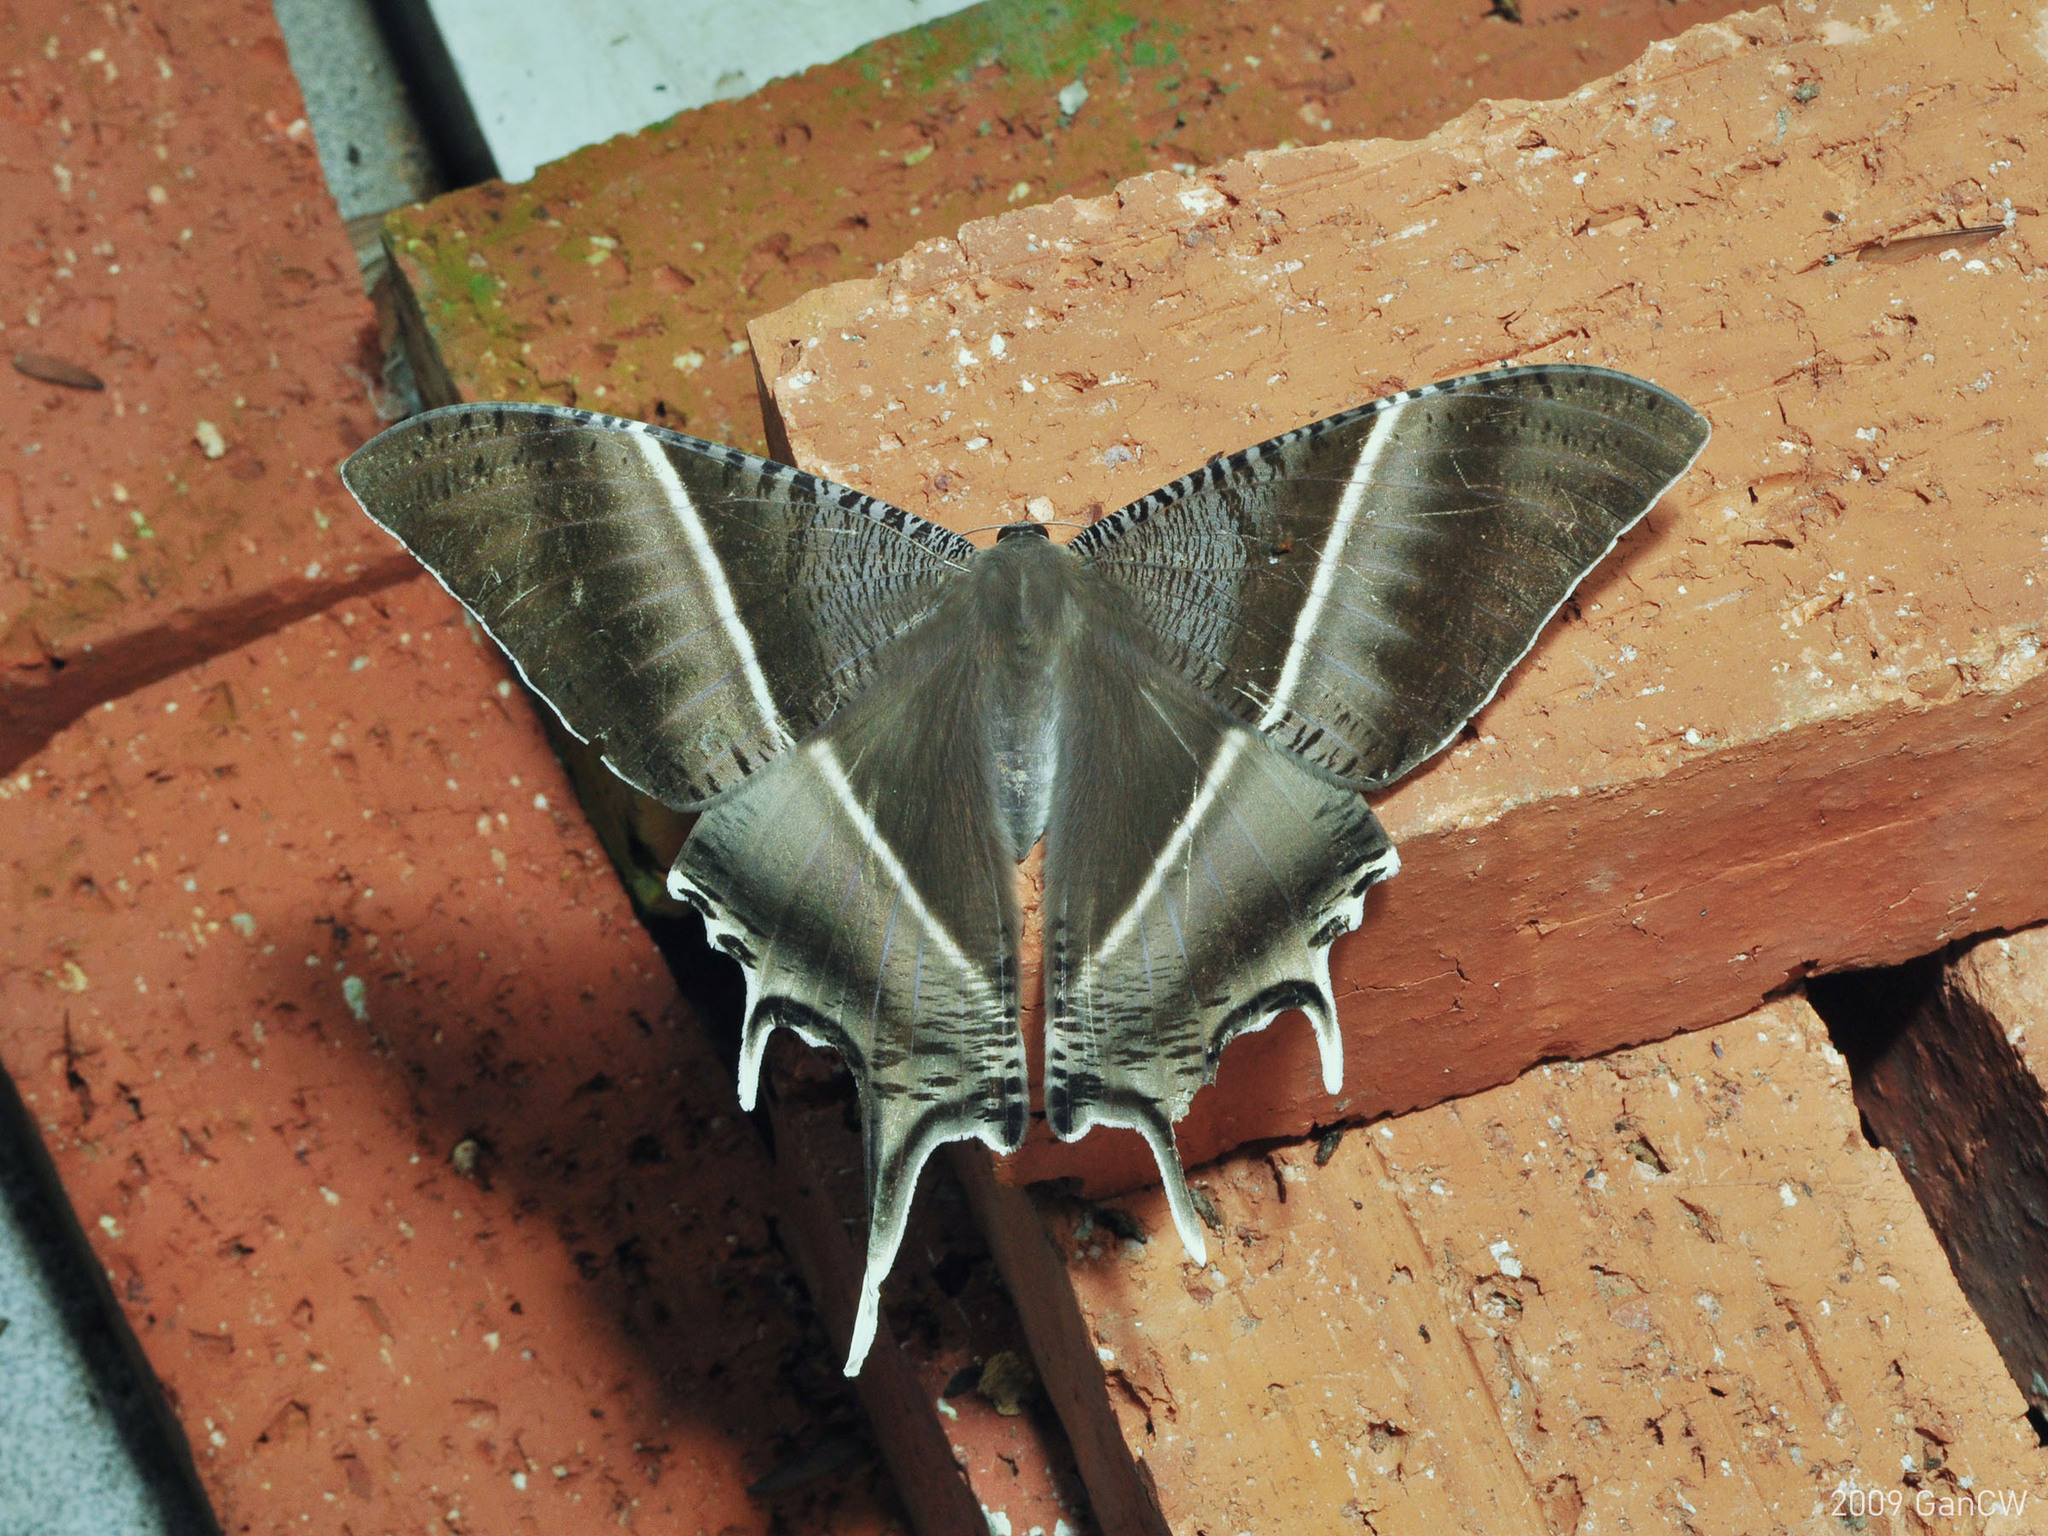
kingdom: Animalia
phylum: Arthropoda
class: Insecta
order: Lepidoptera
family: Uraniidae
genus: Lyssa
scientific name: Lyssa zampa
